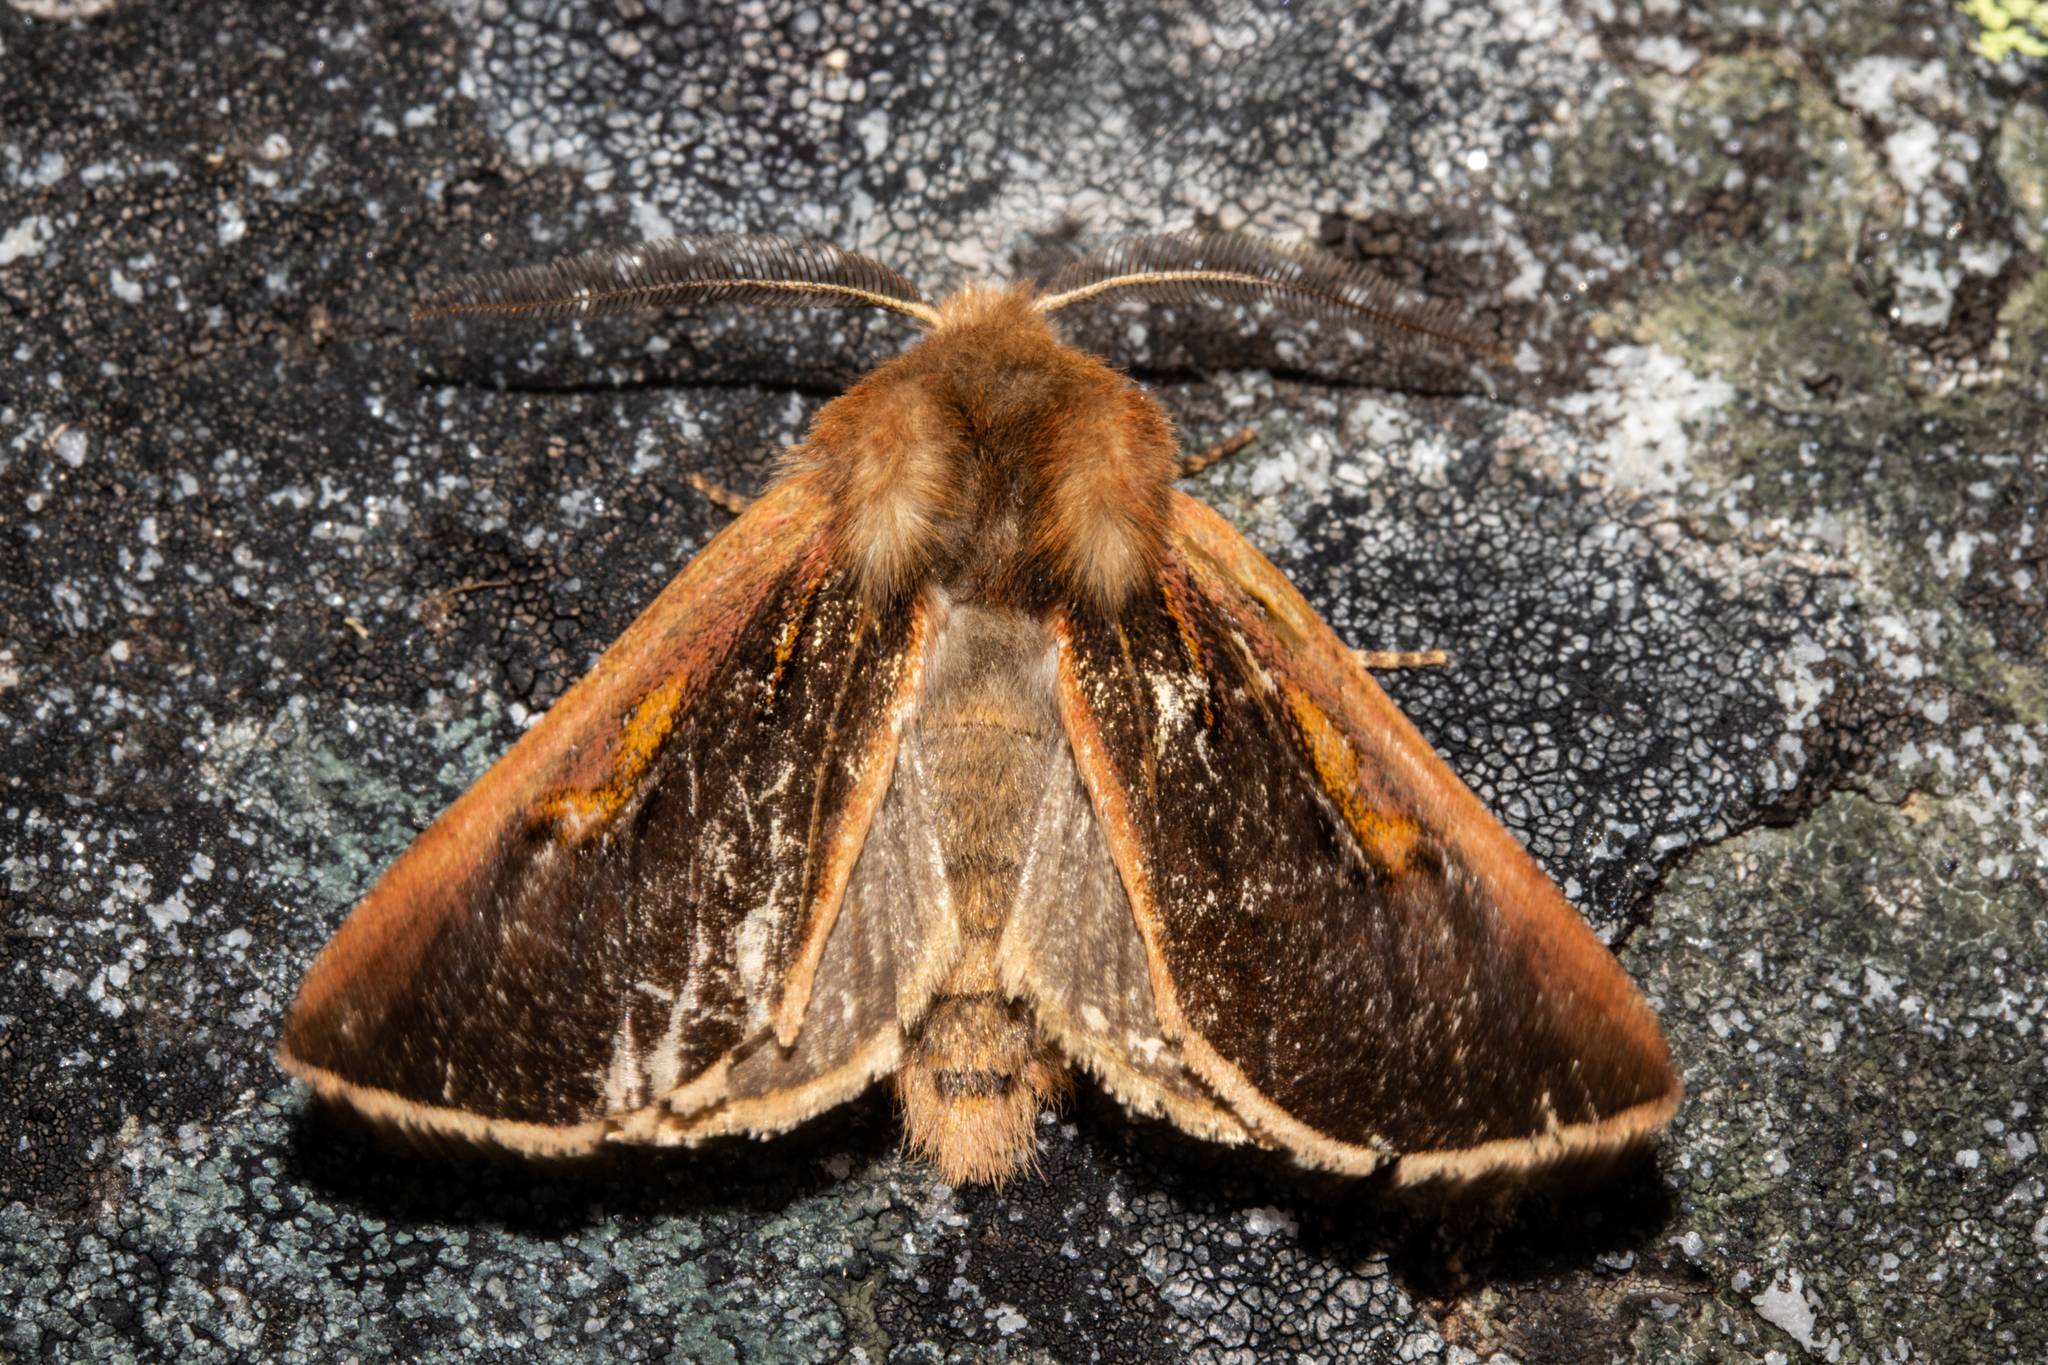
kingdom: Animalia
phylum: Arthropoda
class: Insecta
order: Lepidoptera
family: Noctuidae
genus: Ichneutica
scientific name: Ichneutica dione
